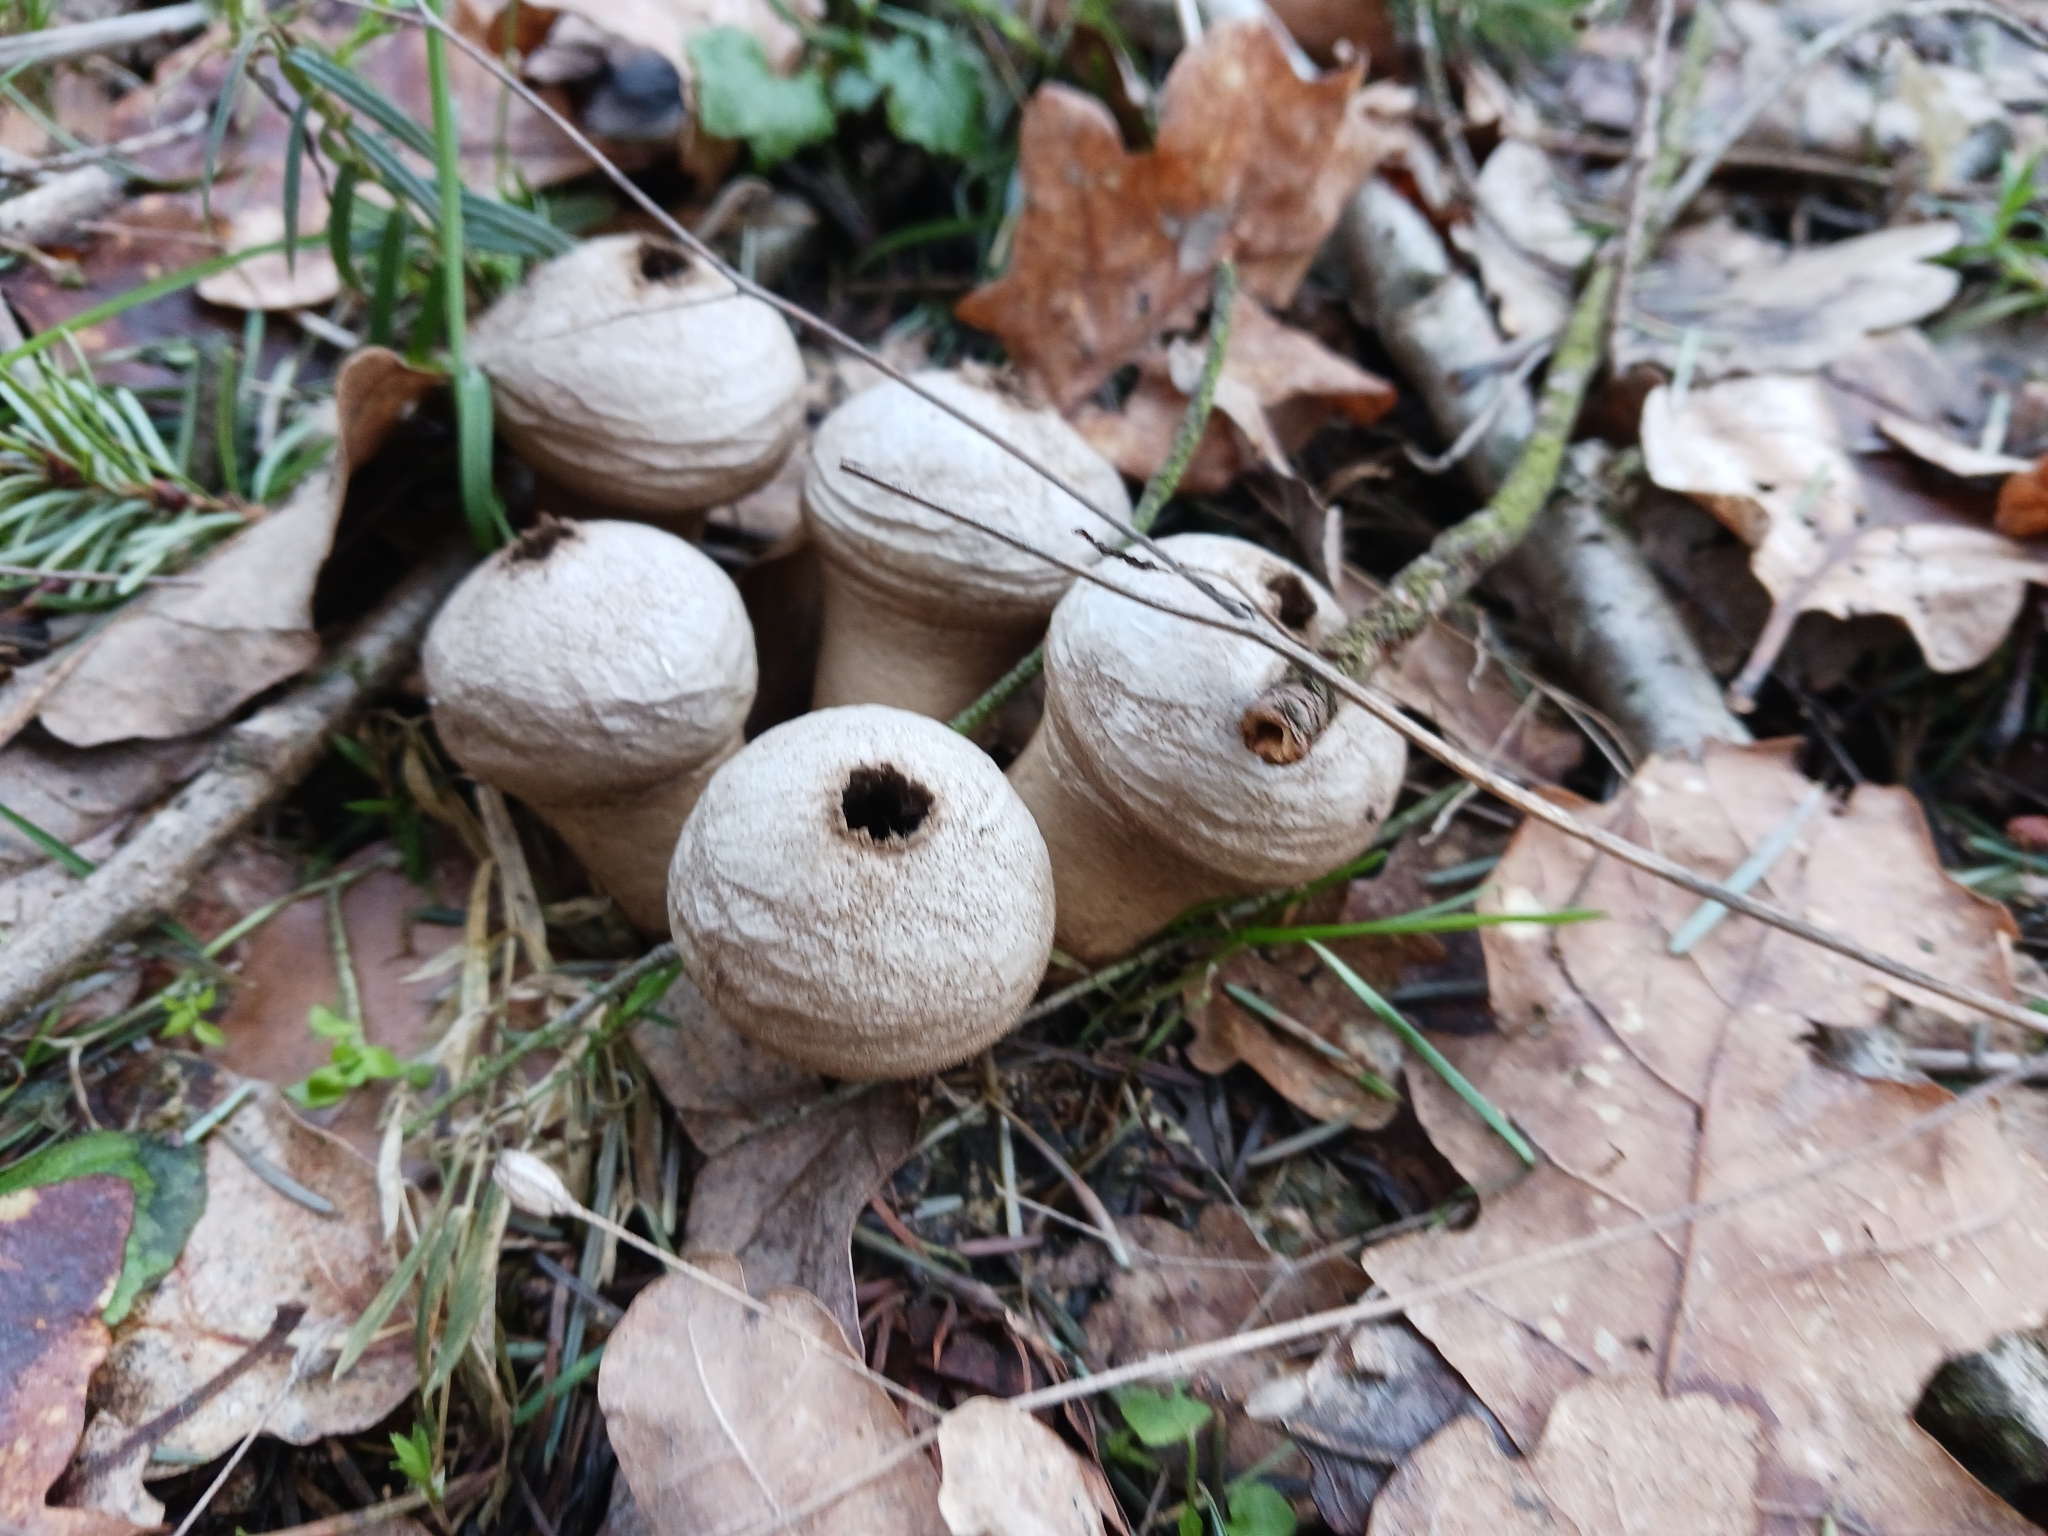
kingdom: Fungi
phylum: Basidiomycota
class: Agaricomycetes
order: Agaricales
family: Lycoperdaceae
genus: Lycoperdon
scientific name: Lycoperdon perlatum
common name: Common puffball
